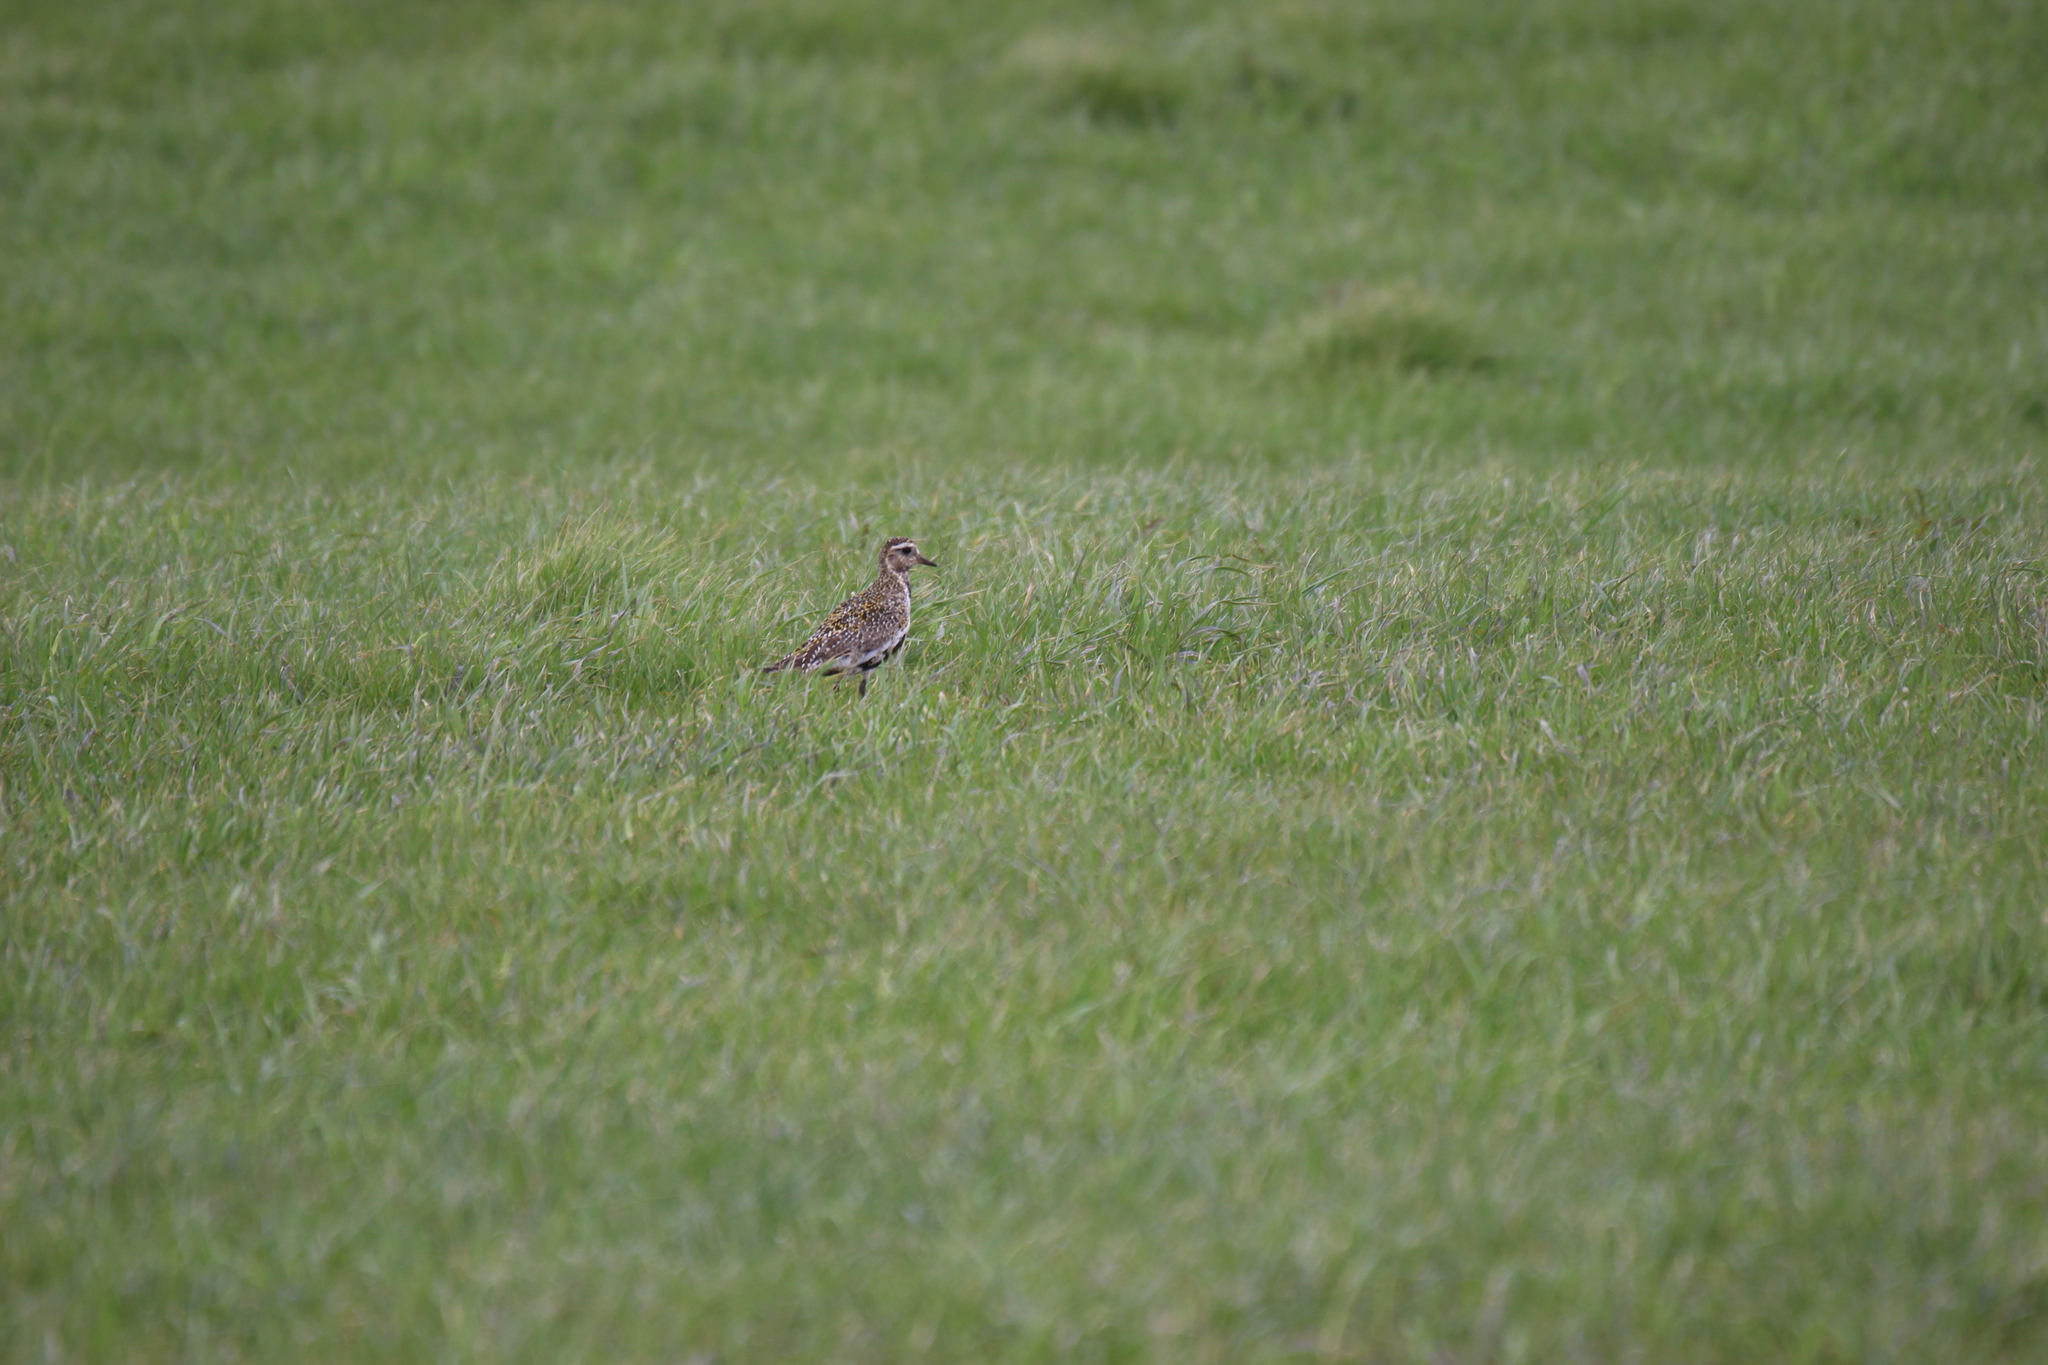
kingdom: Animalia
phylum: Chordata
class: Aves
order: Charadriiformes
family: Charadriidae
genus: Pluvialis
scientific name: Pluvialis apricaria
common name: European golden plover
